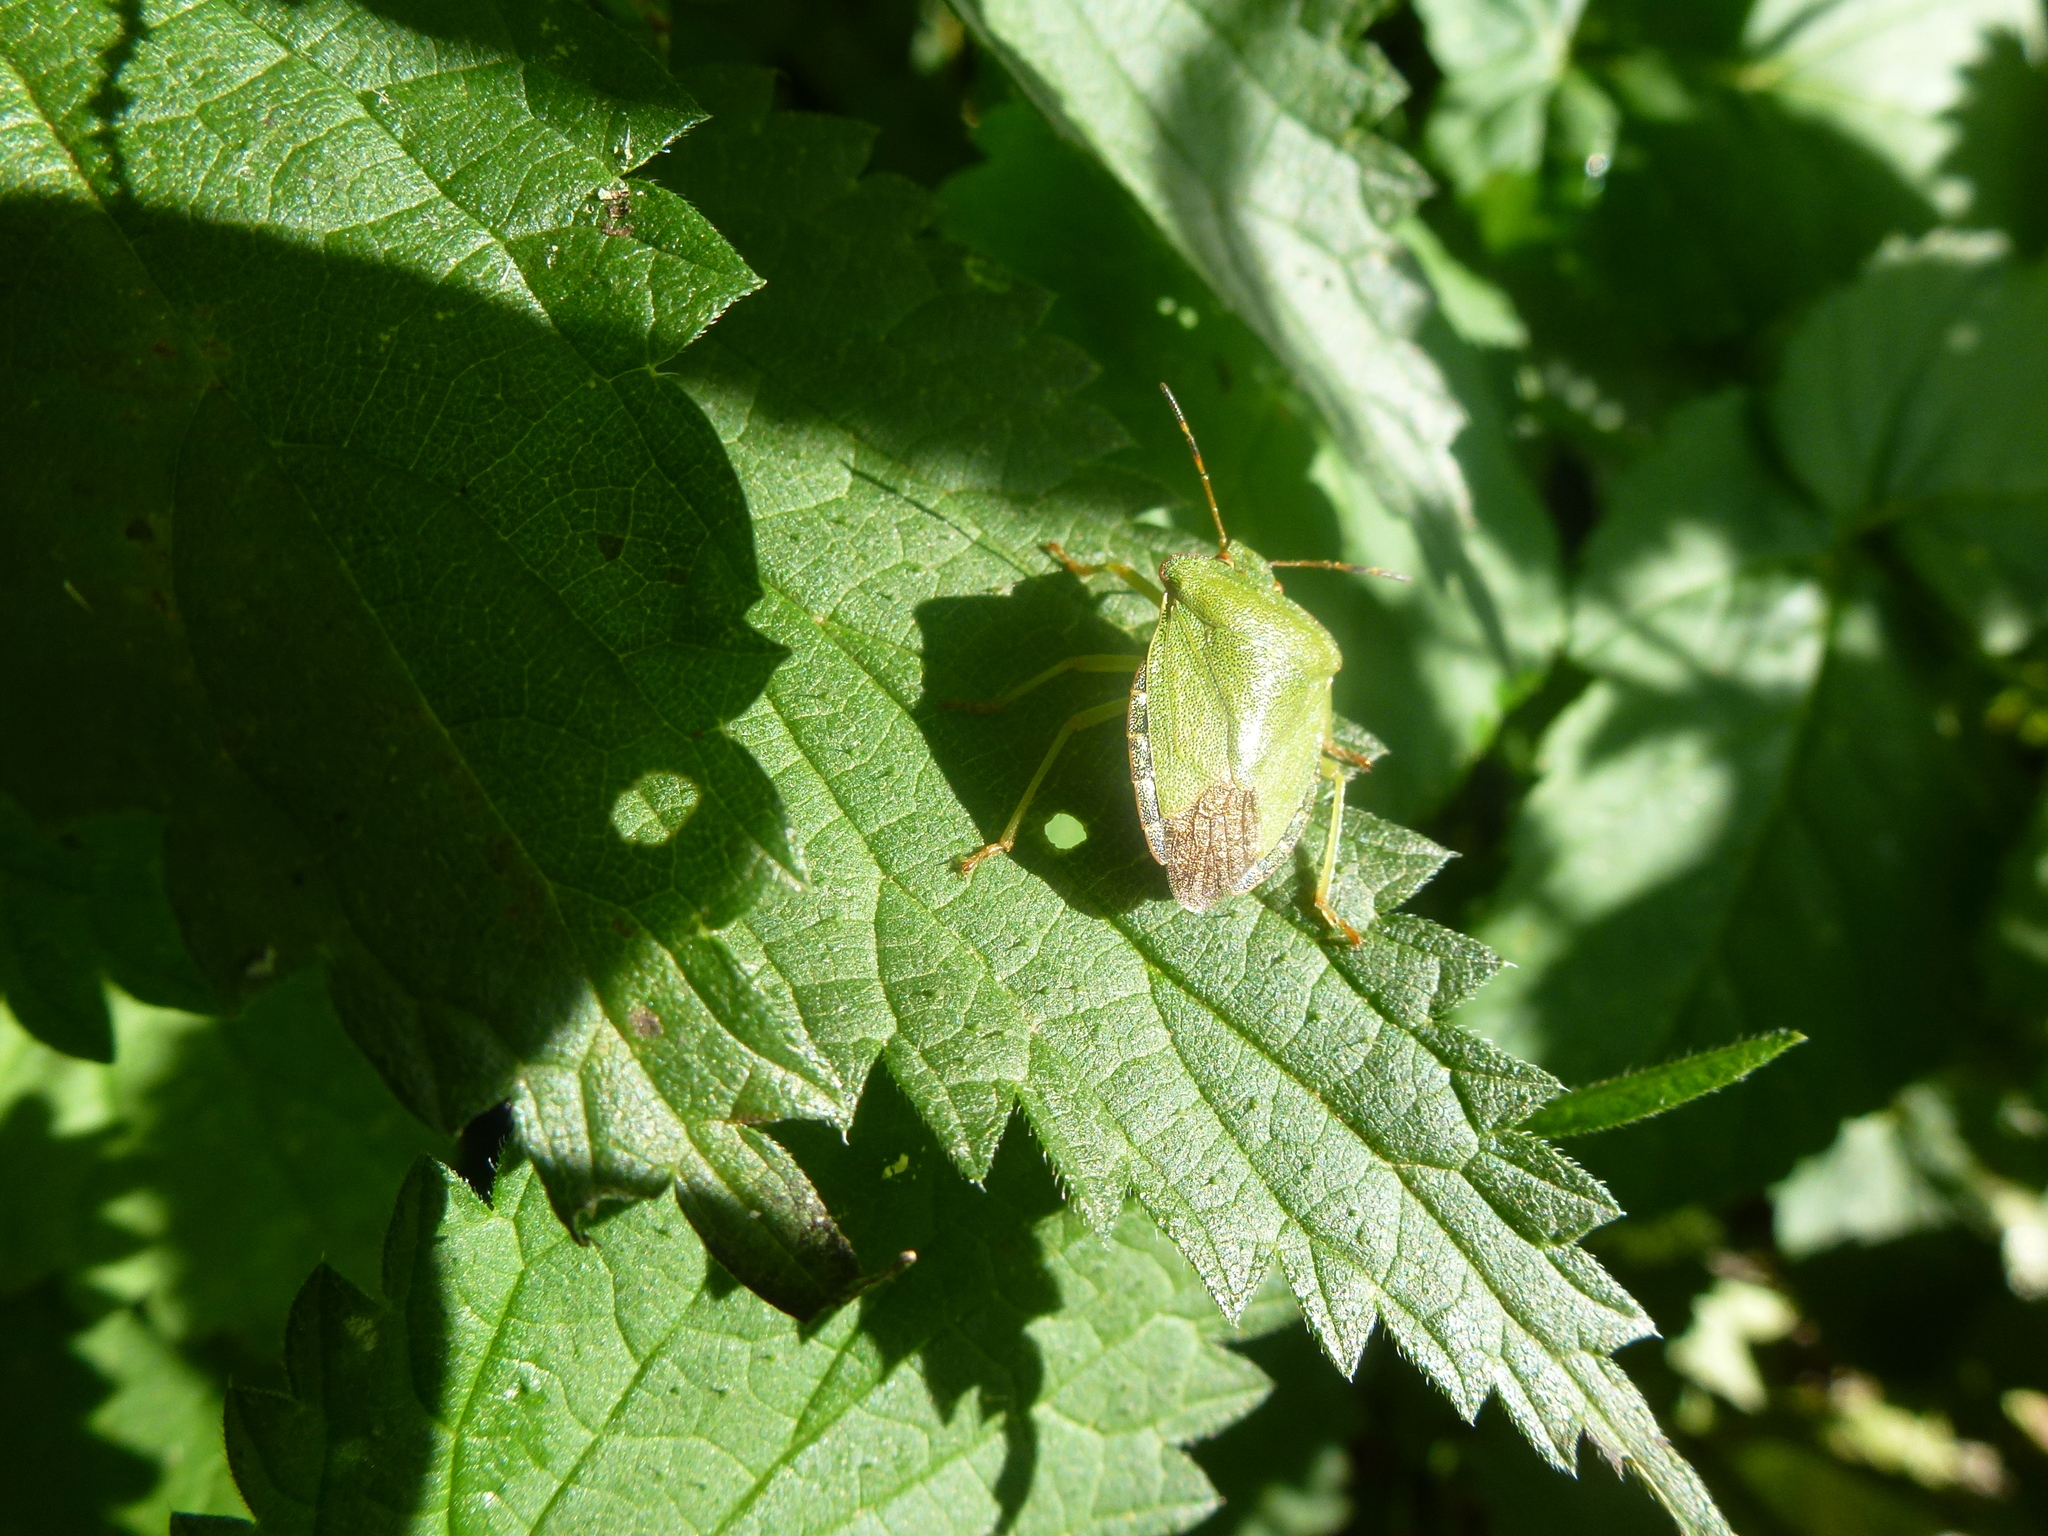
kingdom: Animalia
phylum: Arthropoda
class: Insecta
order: Hemiptera
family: Pentatomidae
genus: Palomena
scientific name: Palomena prasina
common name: Green shieldbug
